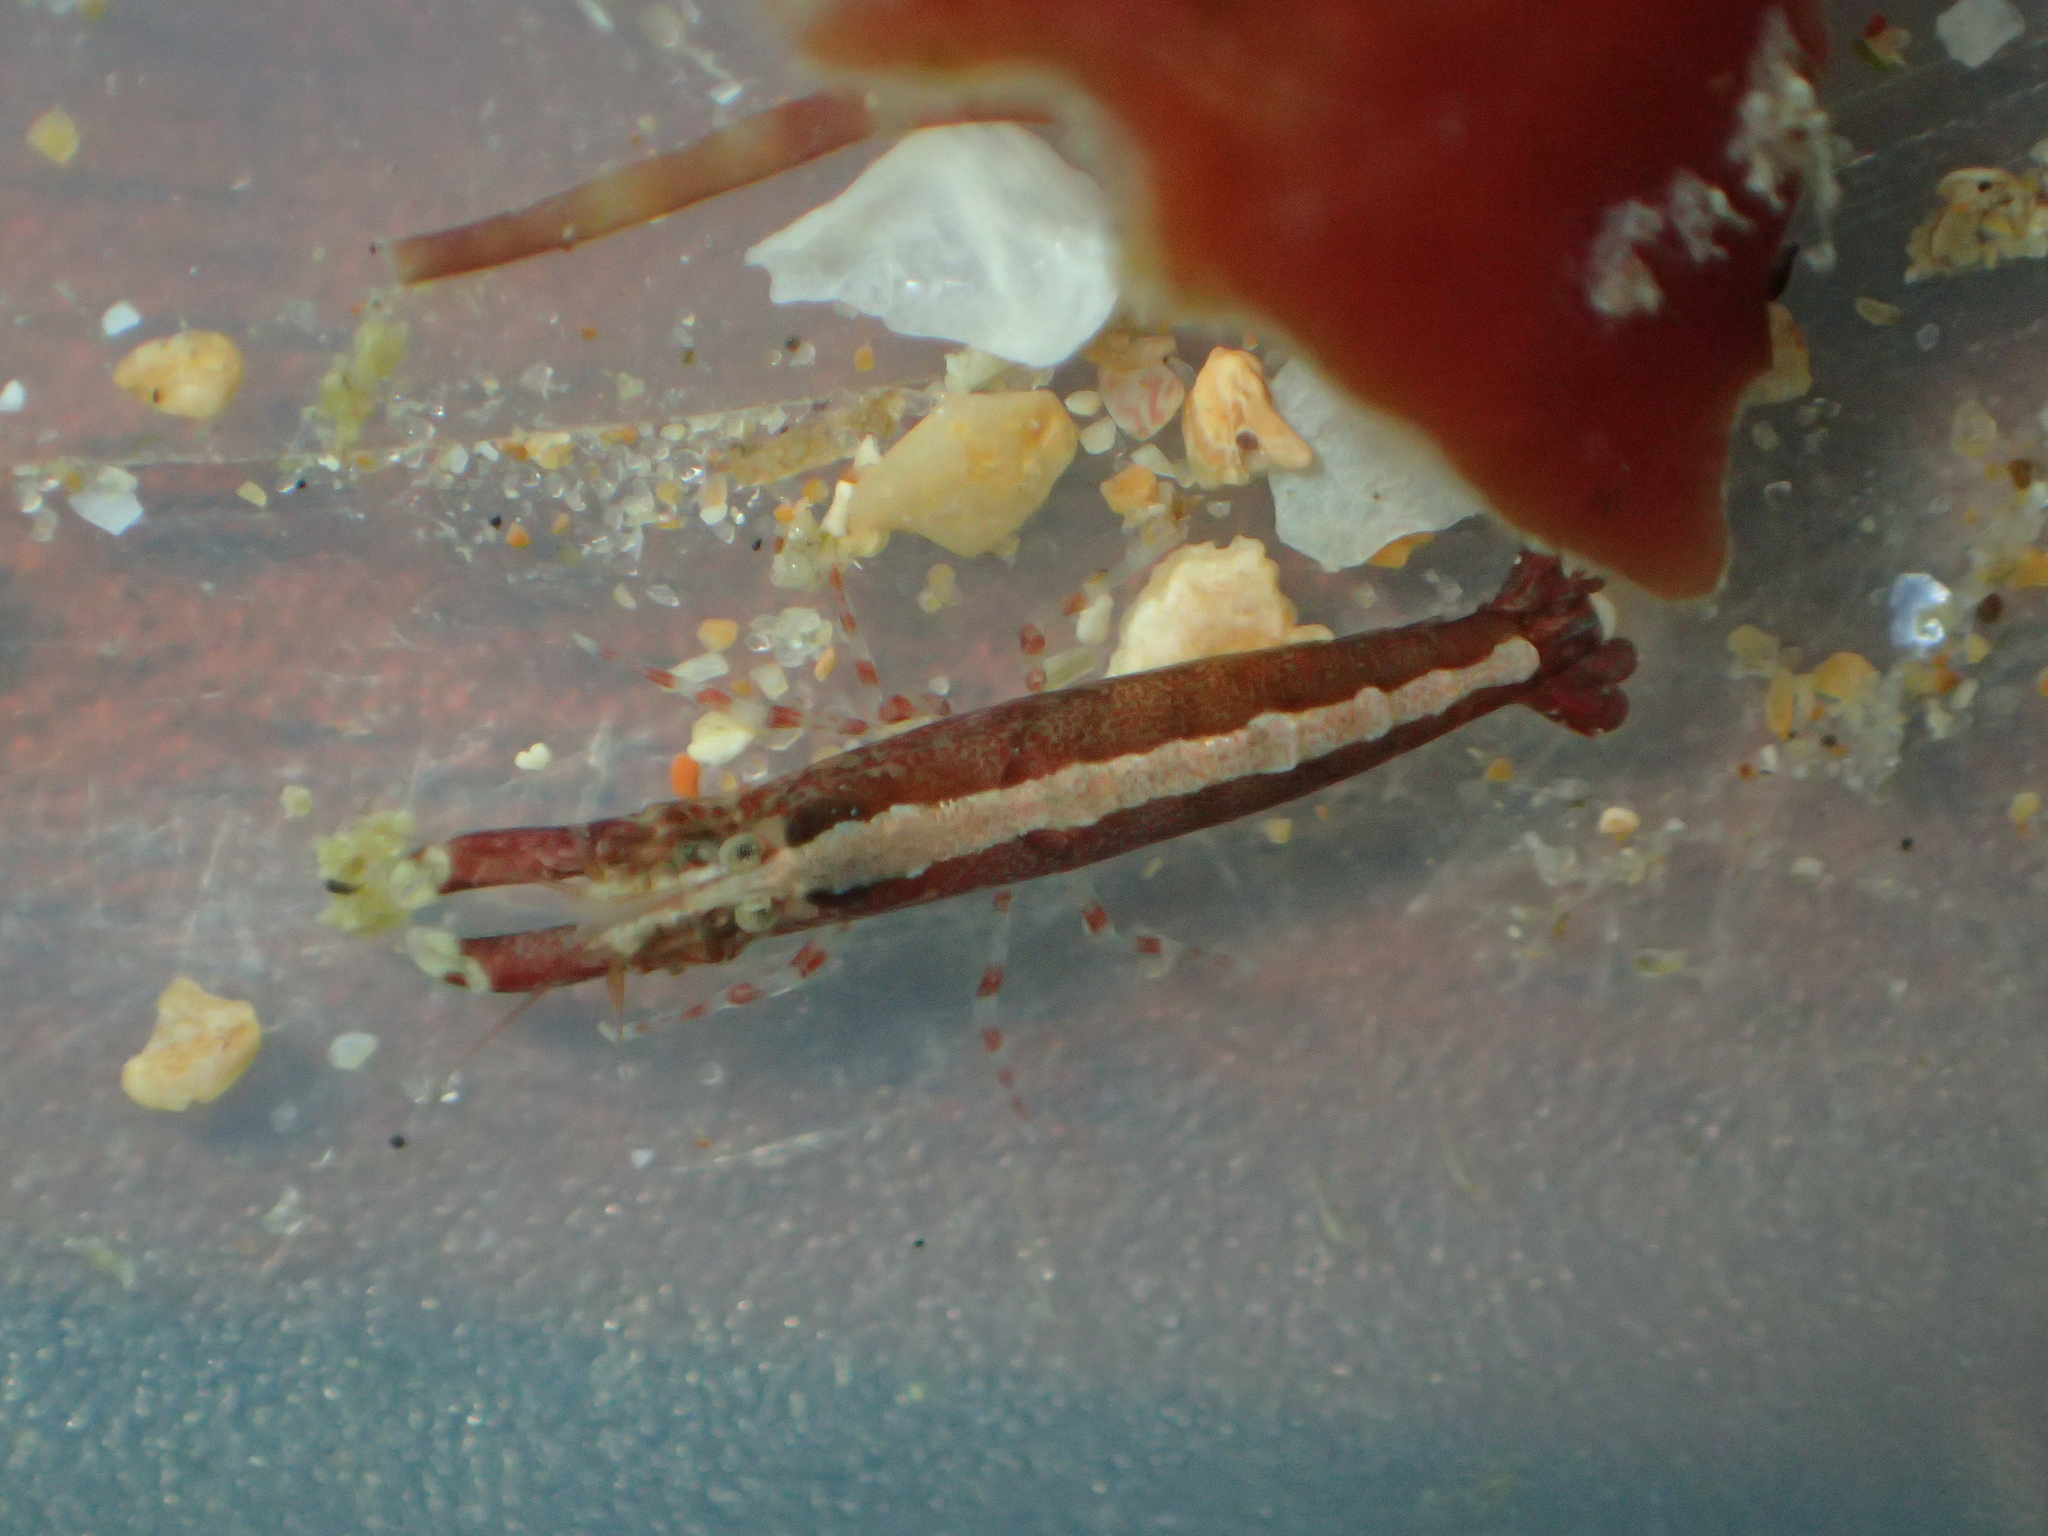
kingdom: Animalia
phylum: Arthropoda
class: Malacostraca
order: Decapoda
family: Alpheidae
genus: Athanas
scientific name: Athanas nitescens
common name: Hooded shrimp
